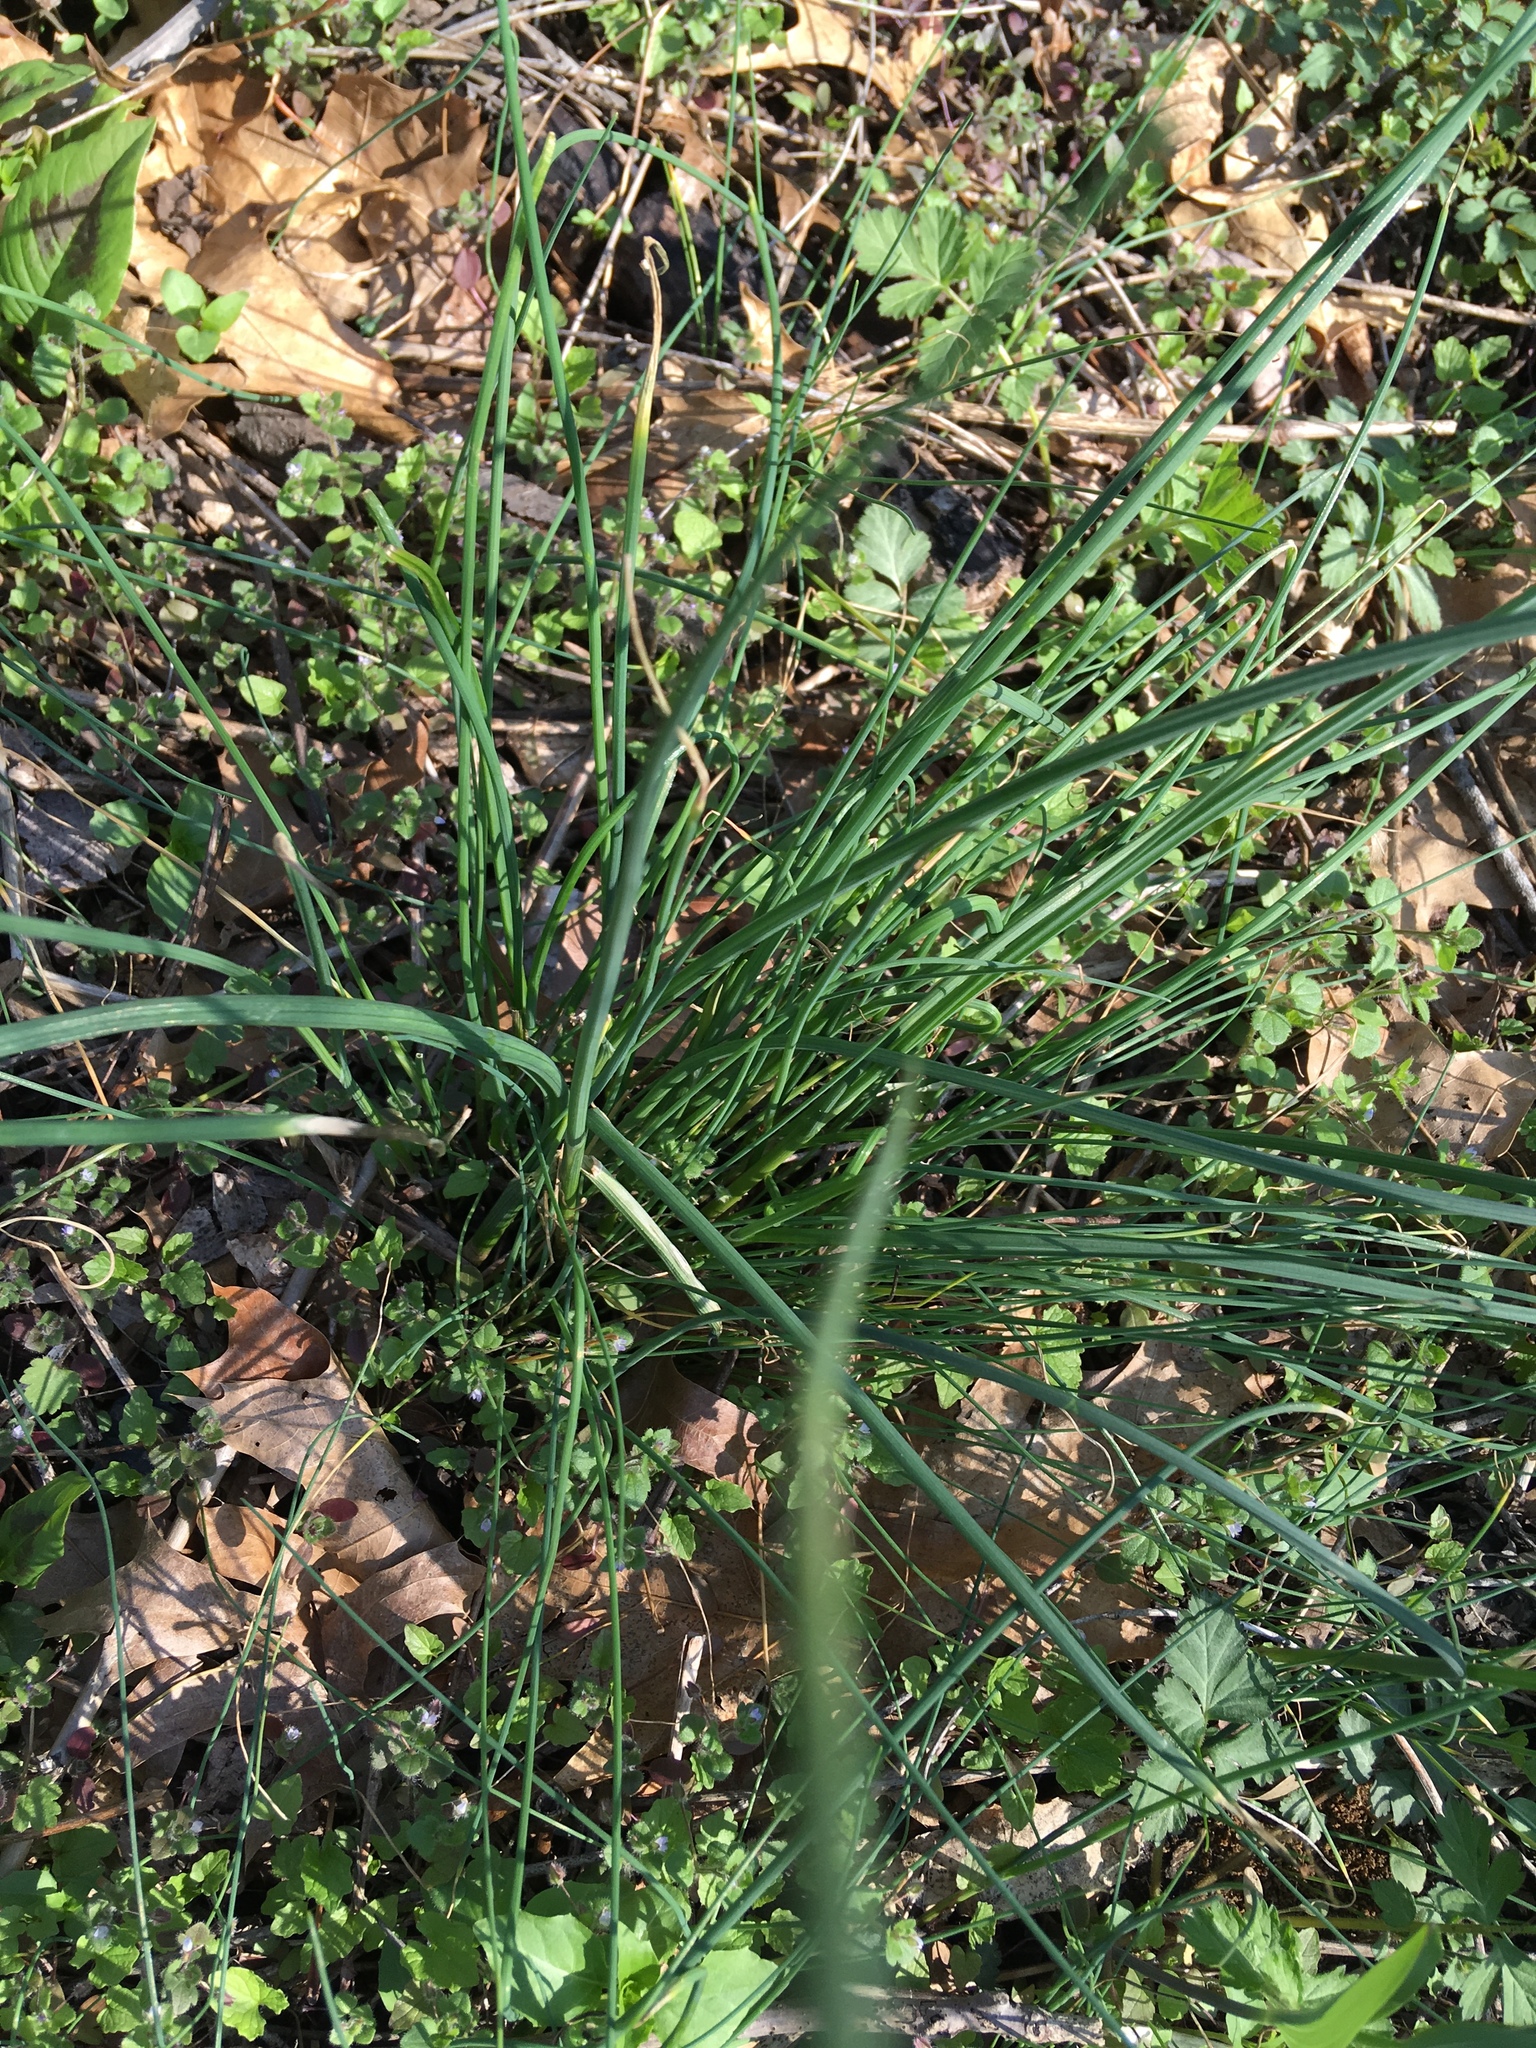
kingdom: Plantae
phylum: Tracheophyta
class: Liliopsida
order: Asparagales
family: Amaryllidaceae
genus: Allium
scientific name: Allium vineale
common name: Crow garlic
